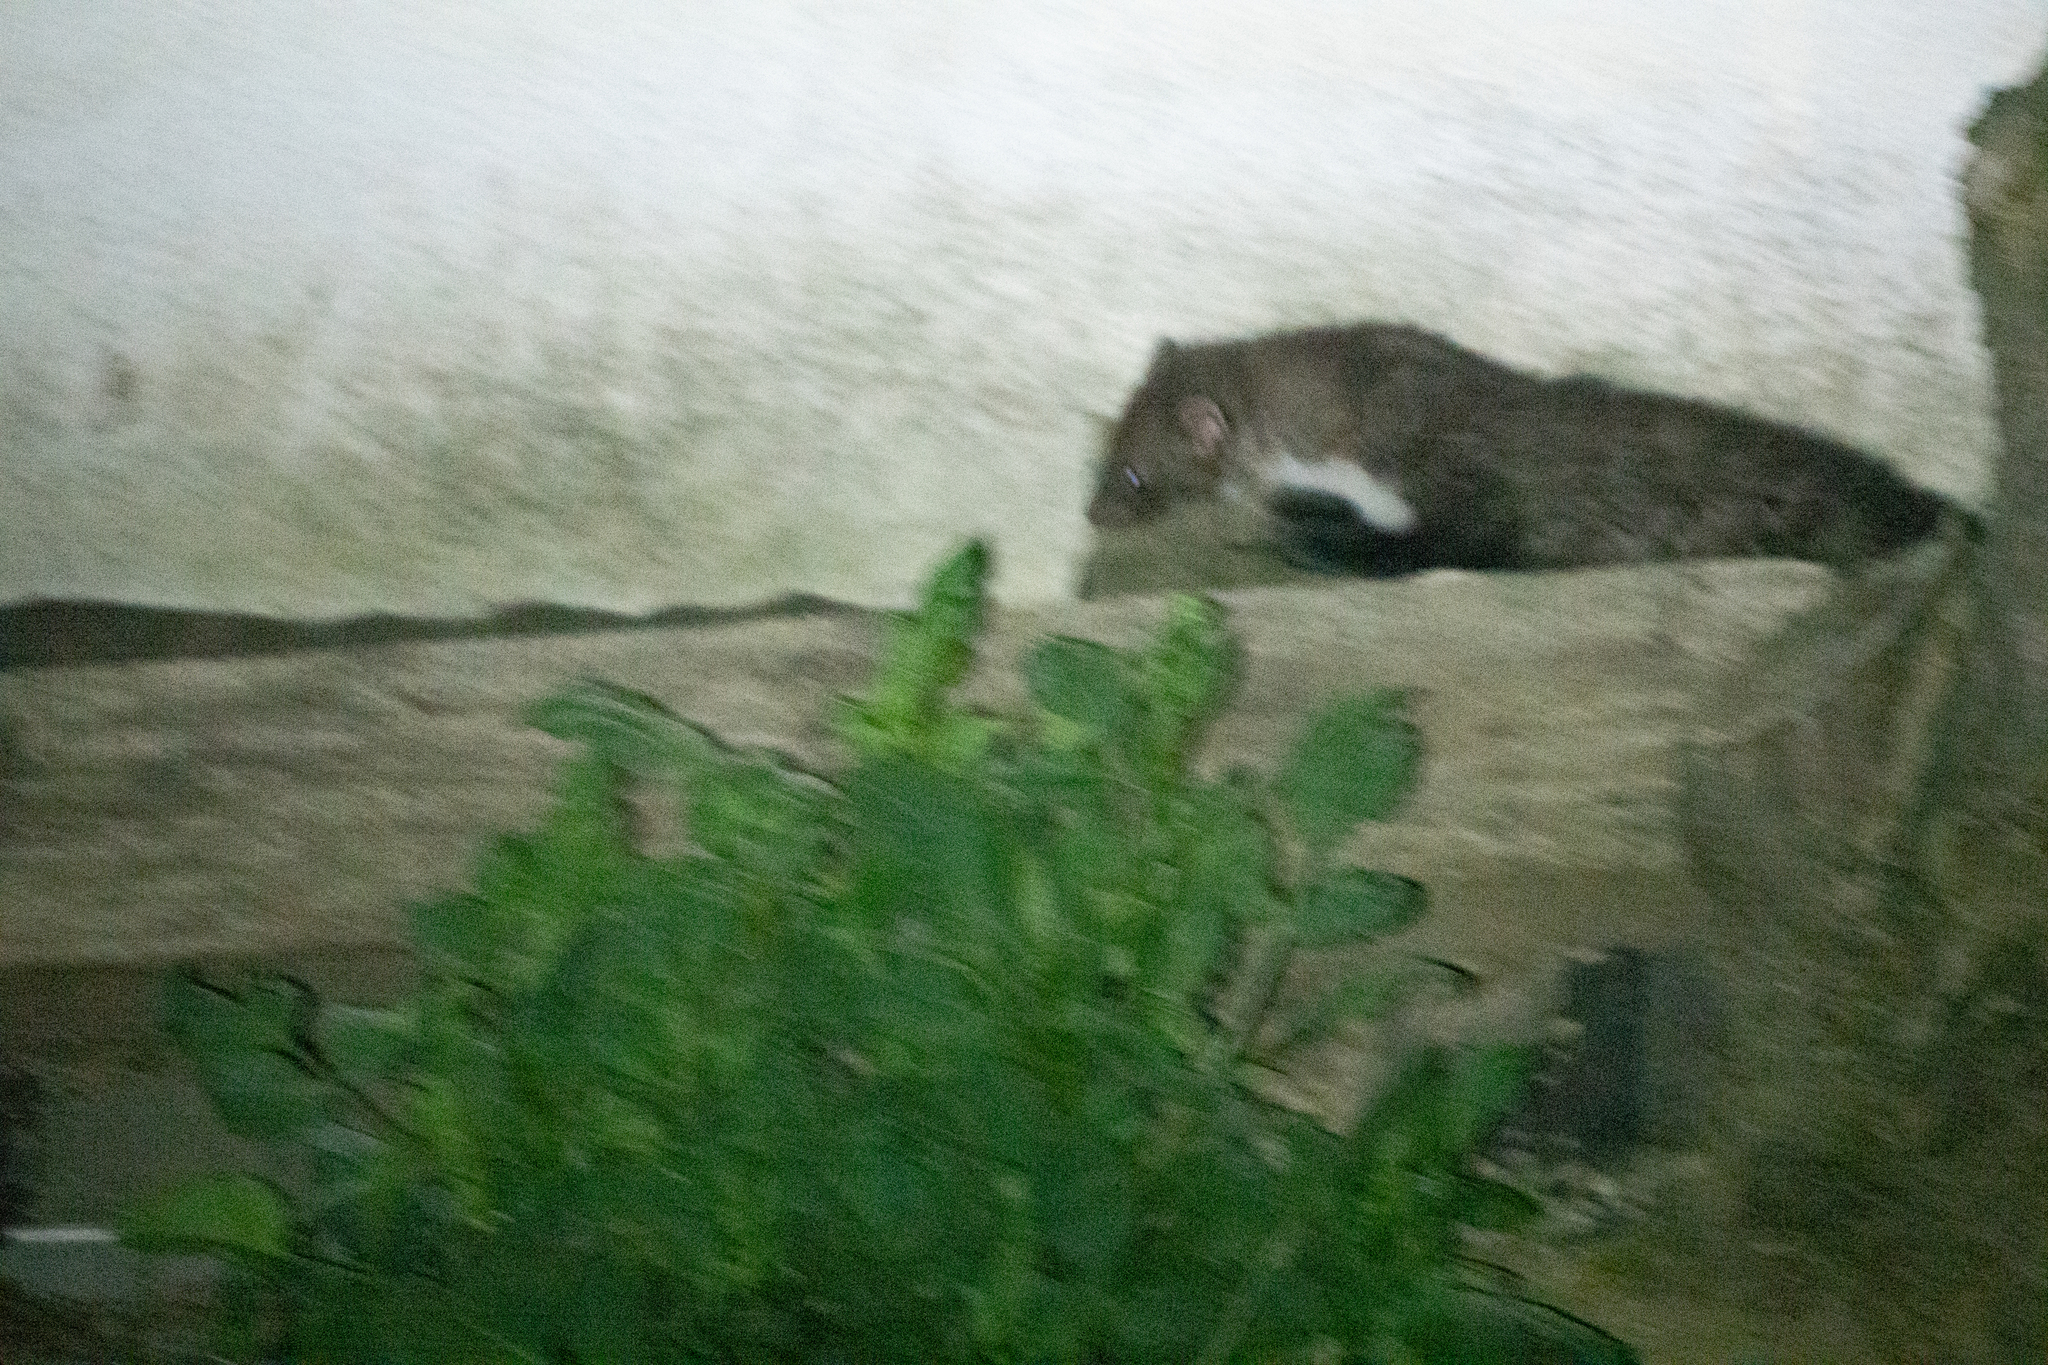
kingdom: Animalia
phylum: Chordata
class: Mammalia
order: Carnivora
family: Mustelidae
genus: Martes
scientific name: Martes foina
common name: Beech marten
